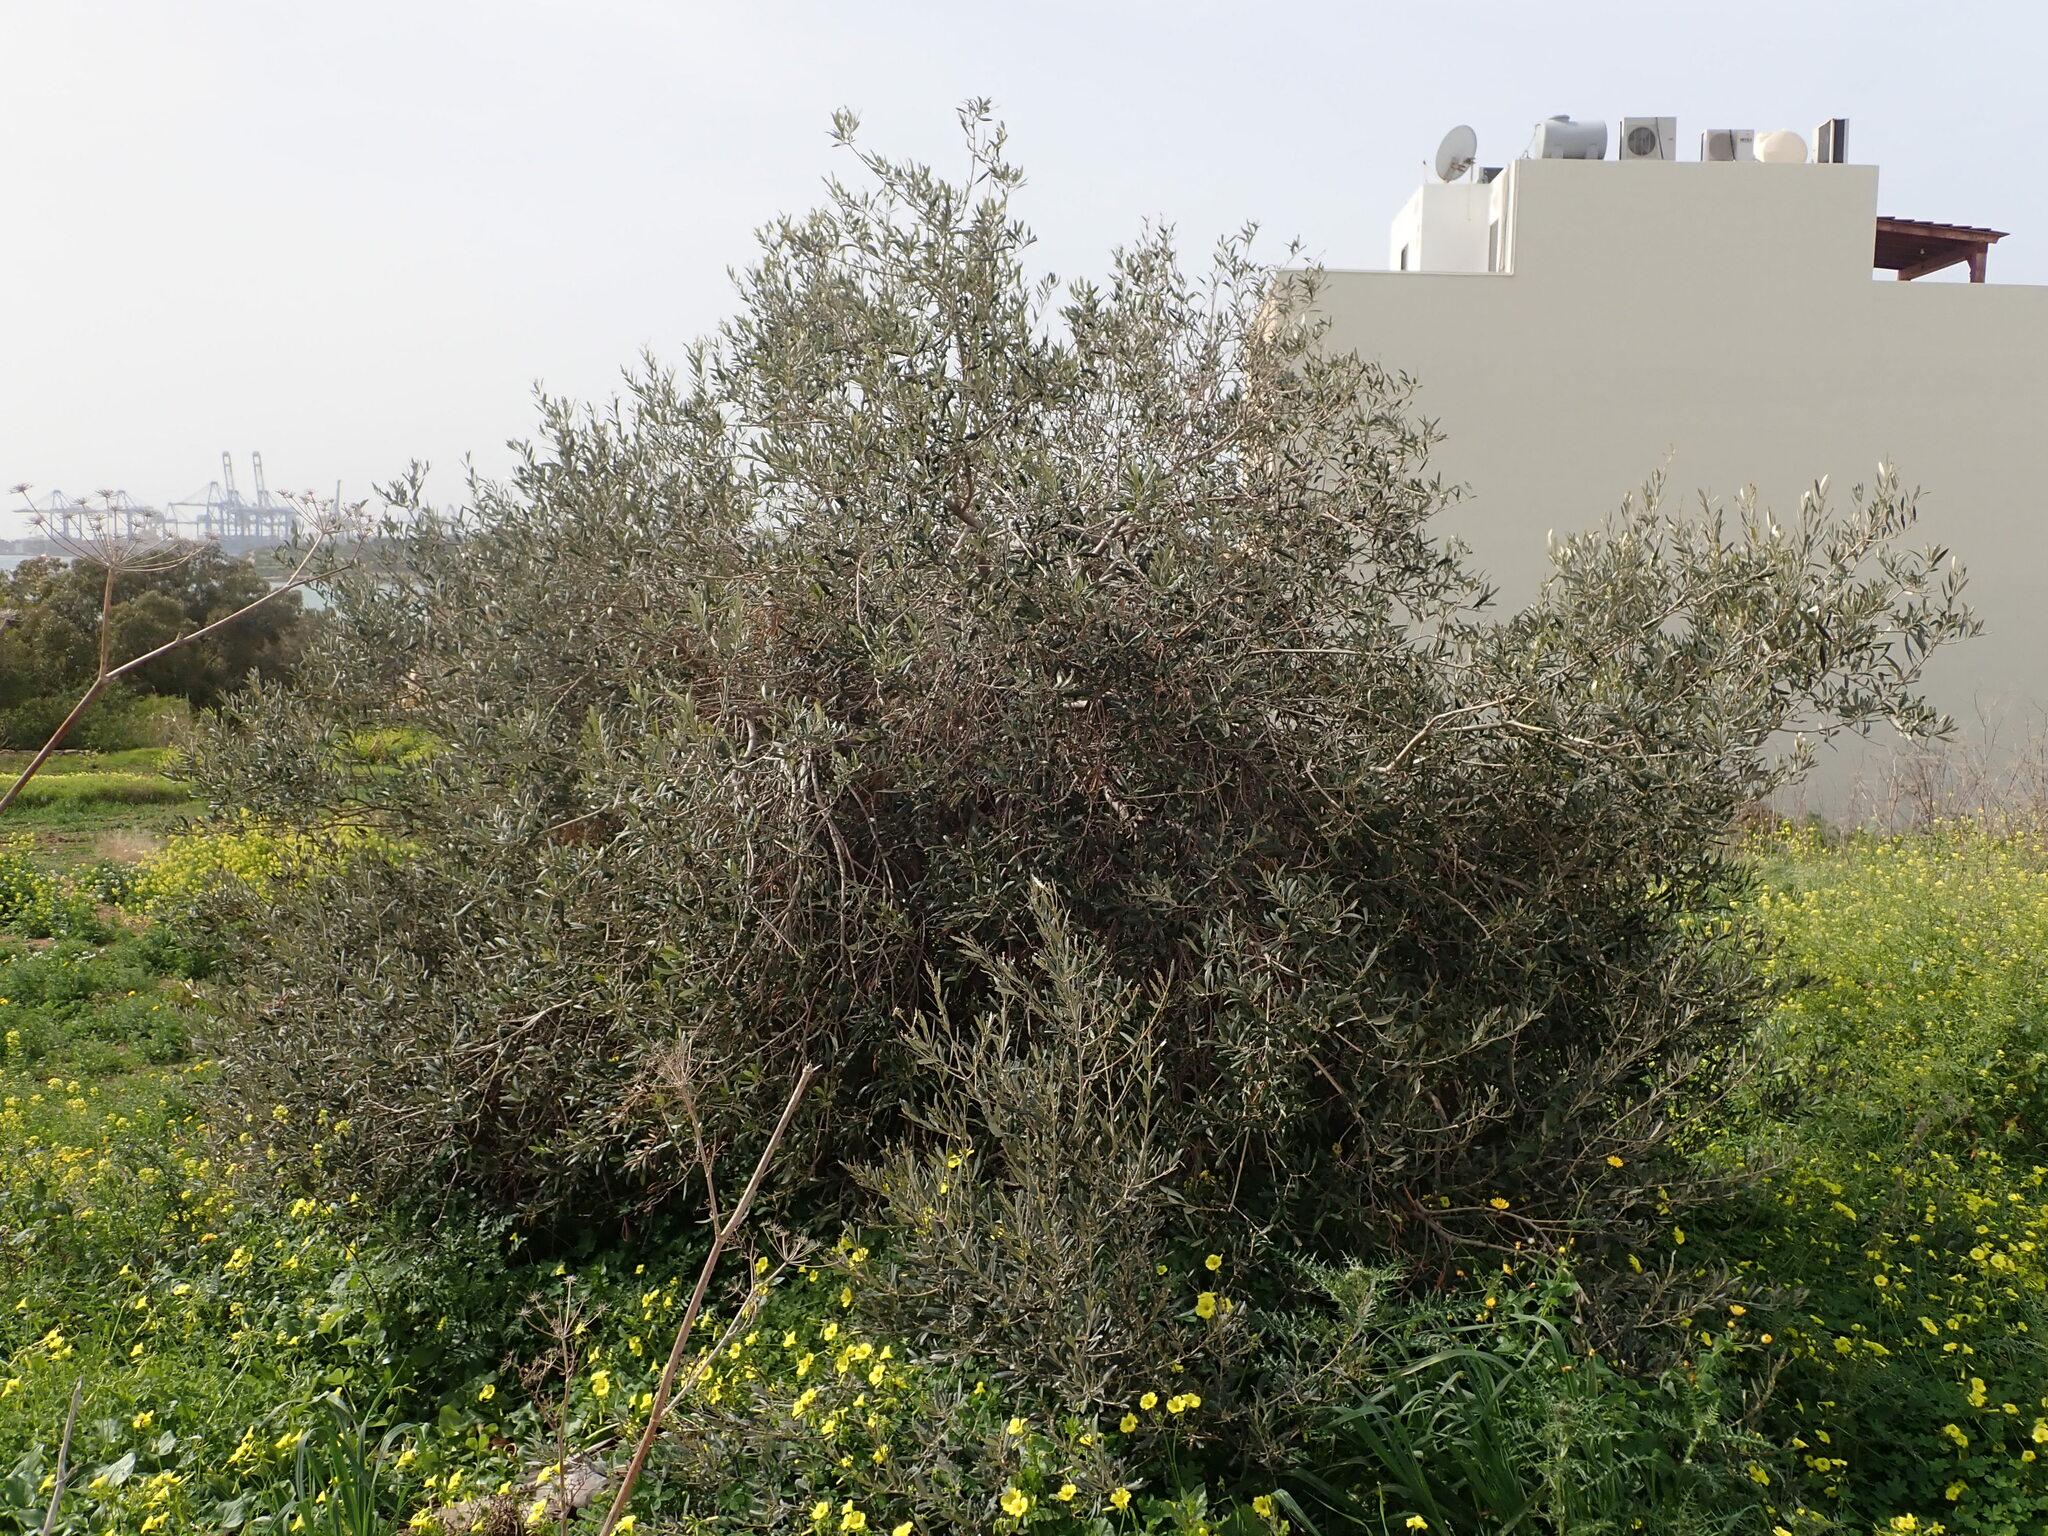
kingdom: Plantae
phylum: Tracheophyta
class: Magnoliopsida
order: Lamiales
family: Oleaceae
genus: Olea
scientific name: Olea europaea
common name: Olive
